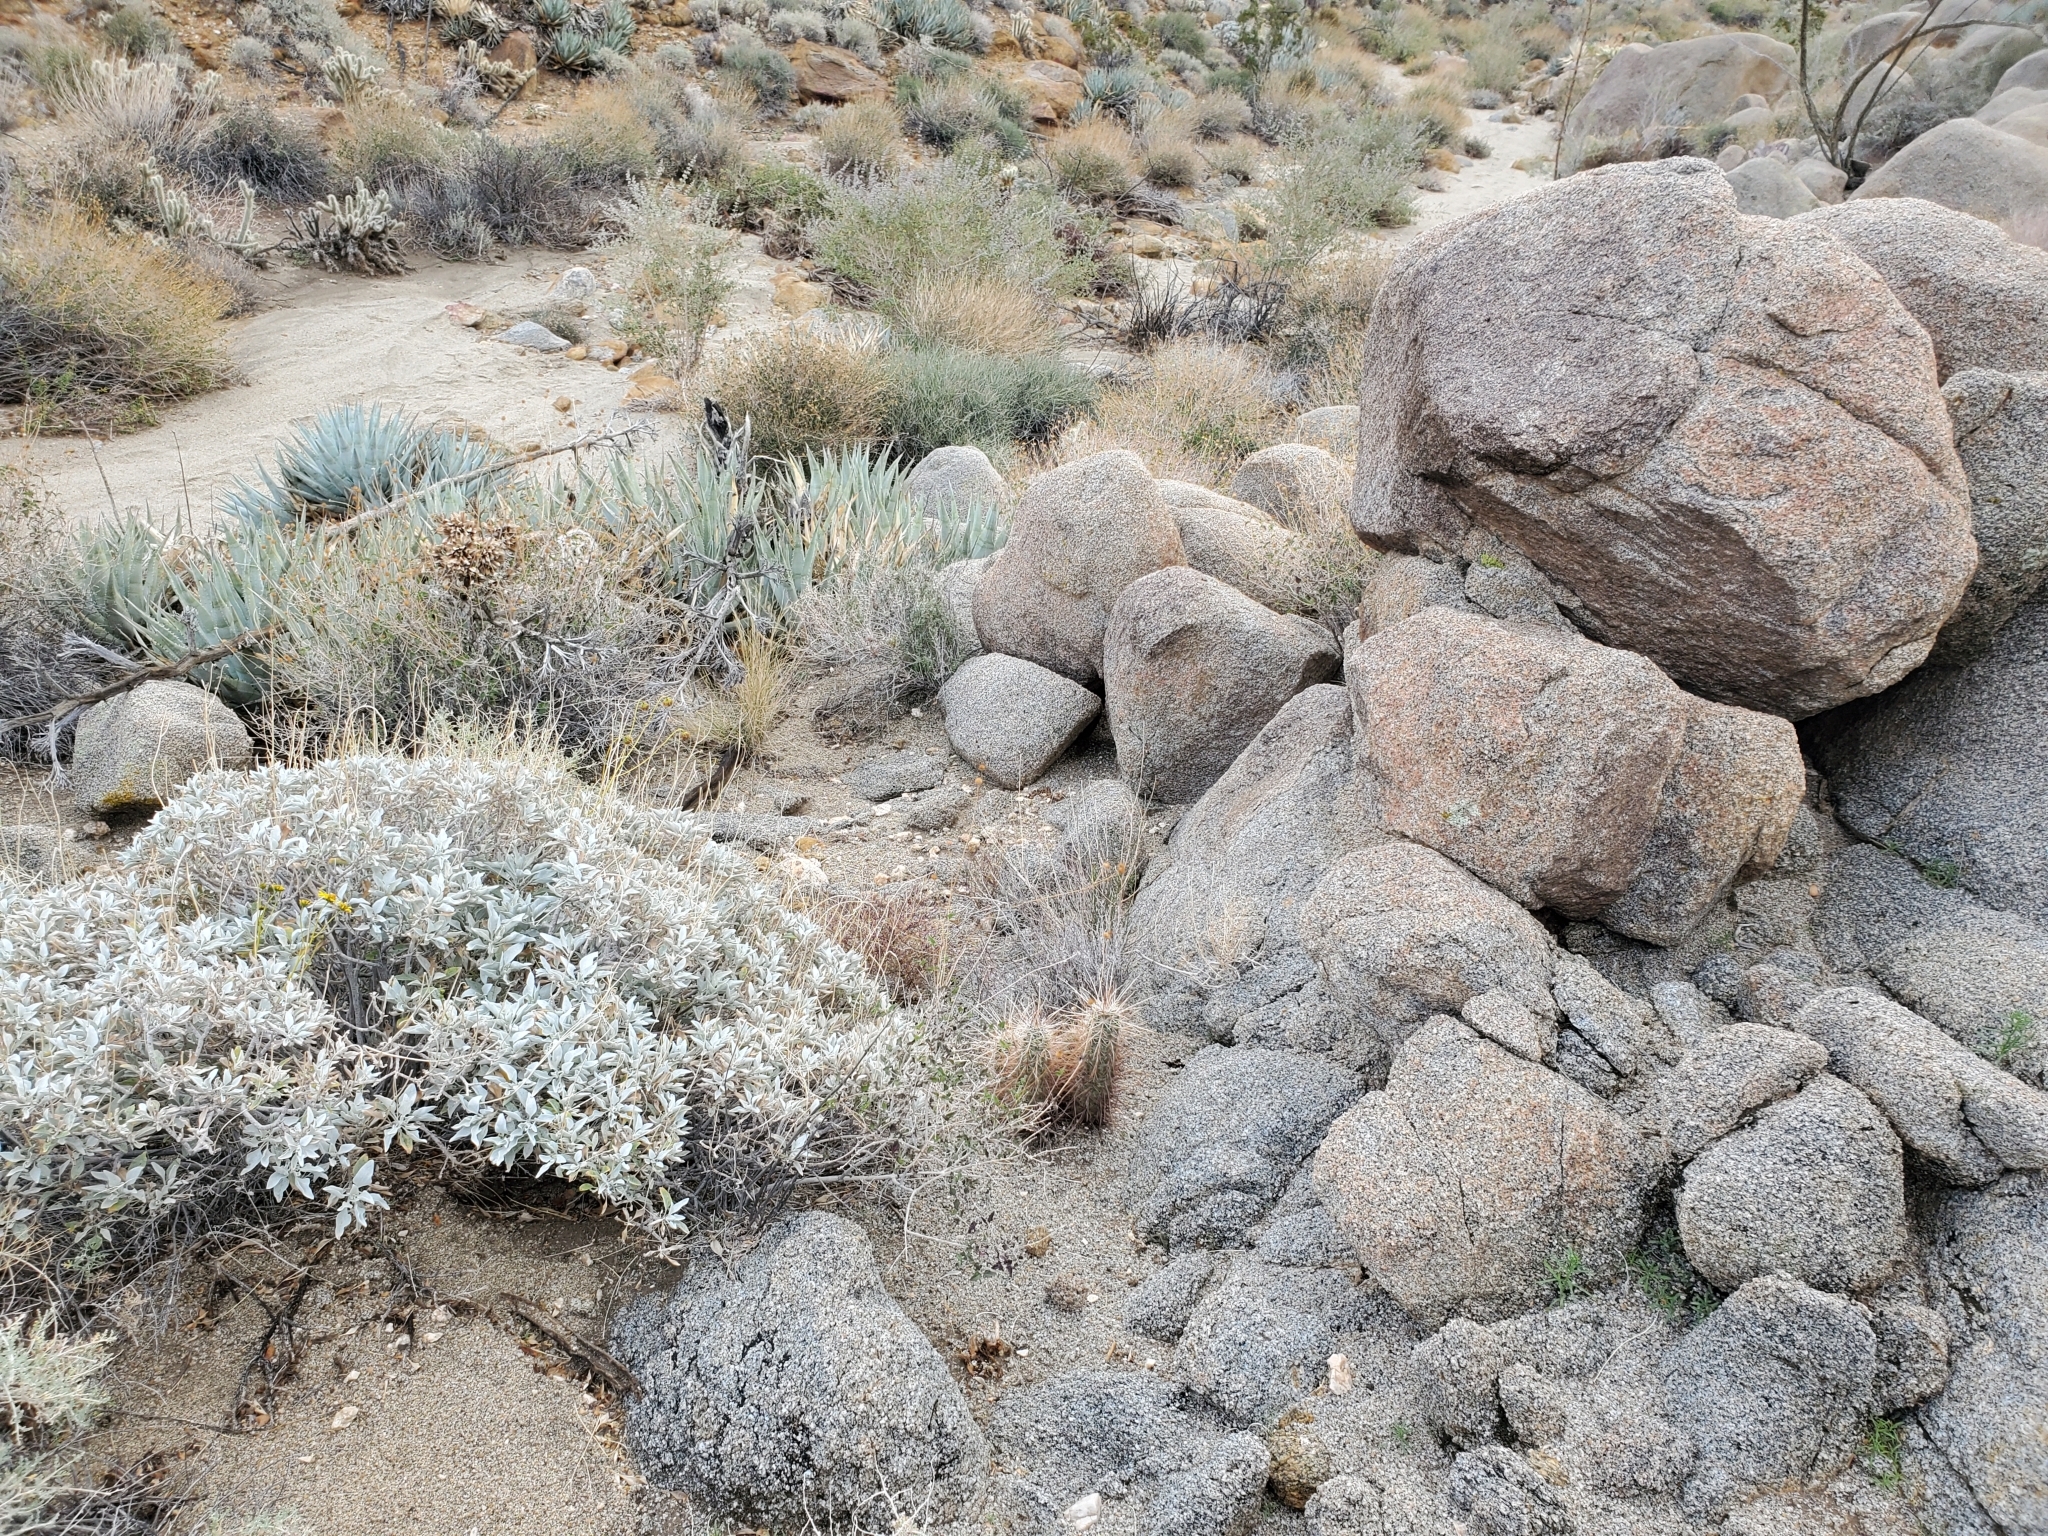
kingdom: Plantae
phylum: Tracheophyta
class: Magnoliopsida
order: Caryophyllales
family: Cactaceae
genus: Echinocereus
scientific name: Echinocereus engelmannii
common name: Engelmann's hedgehog cactus
